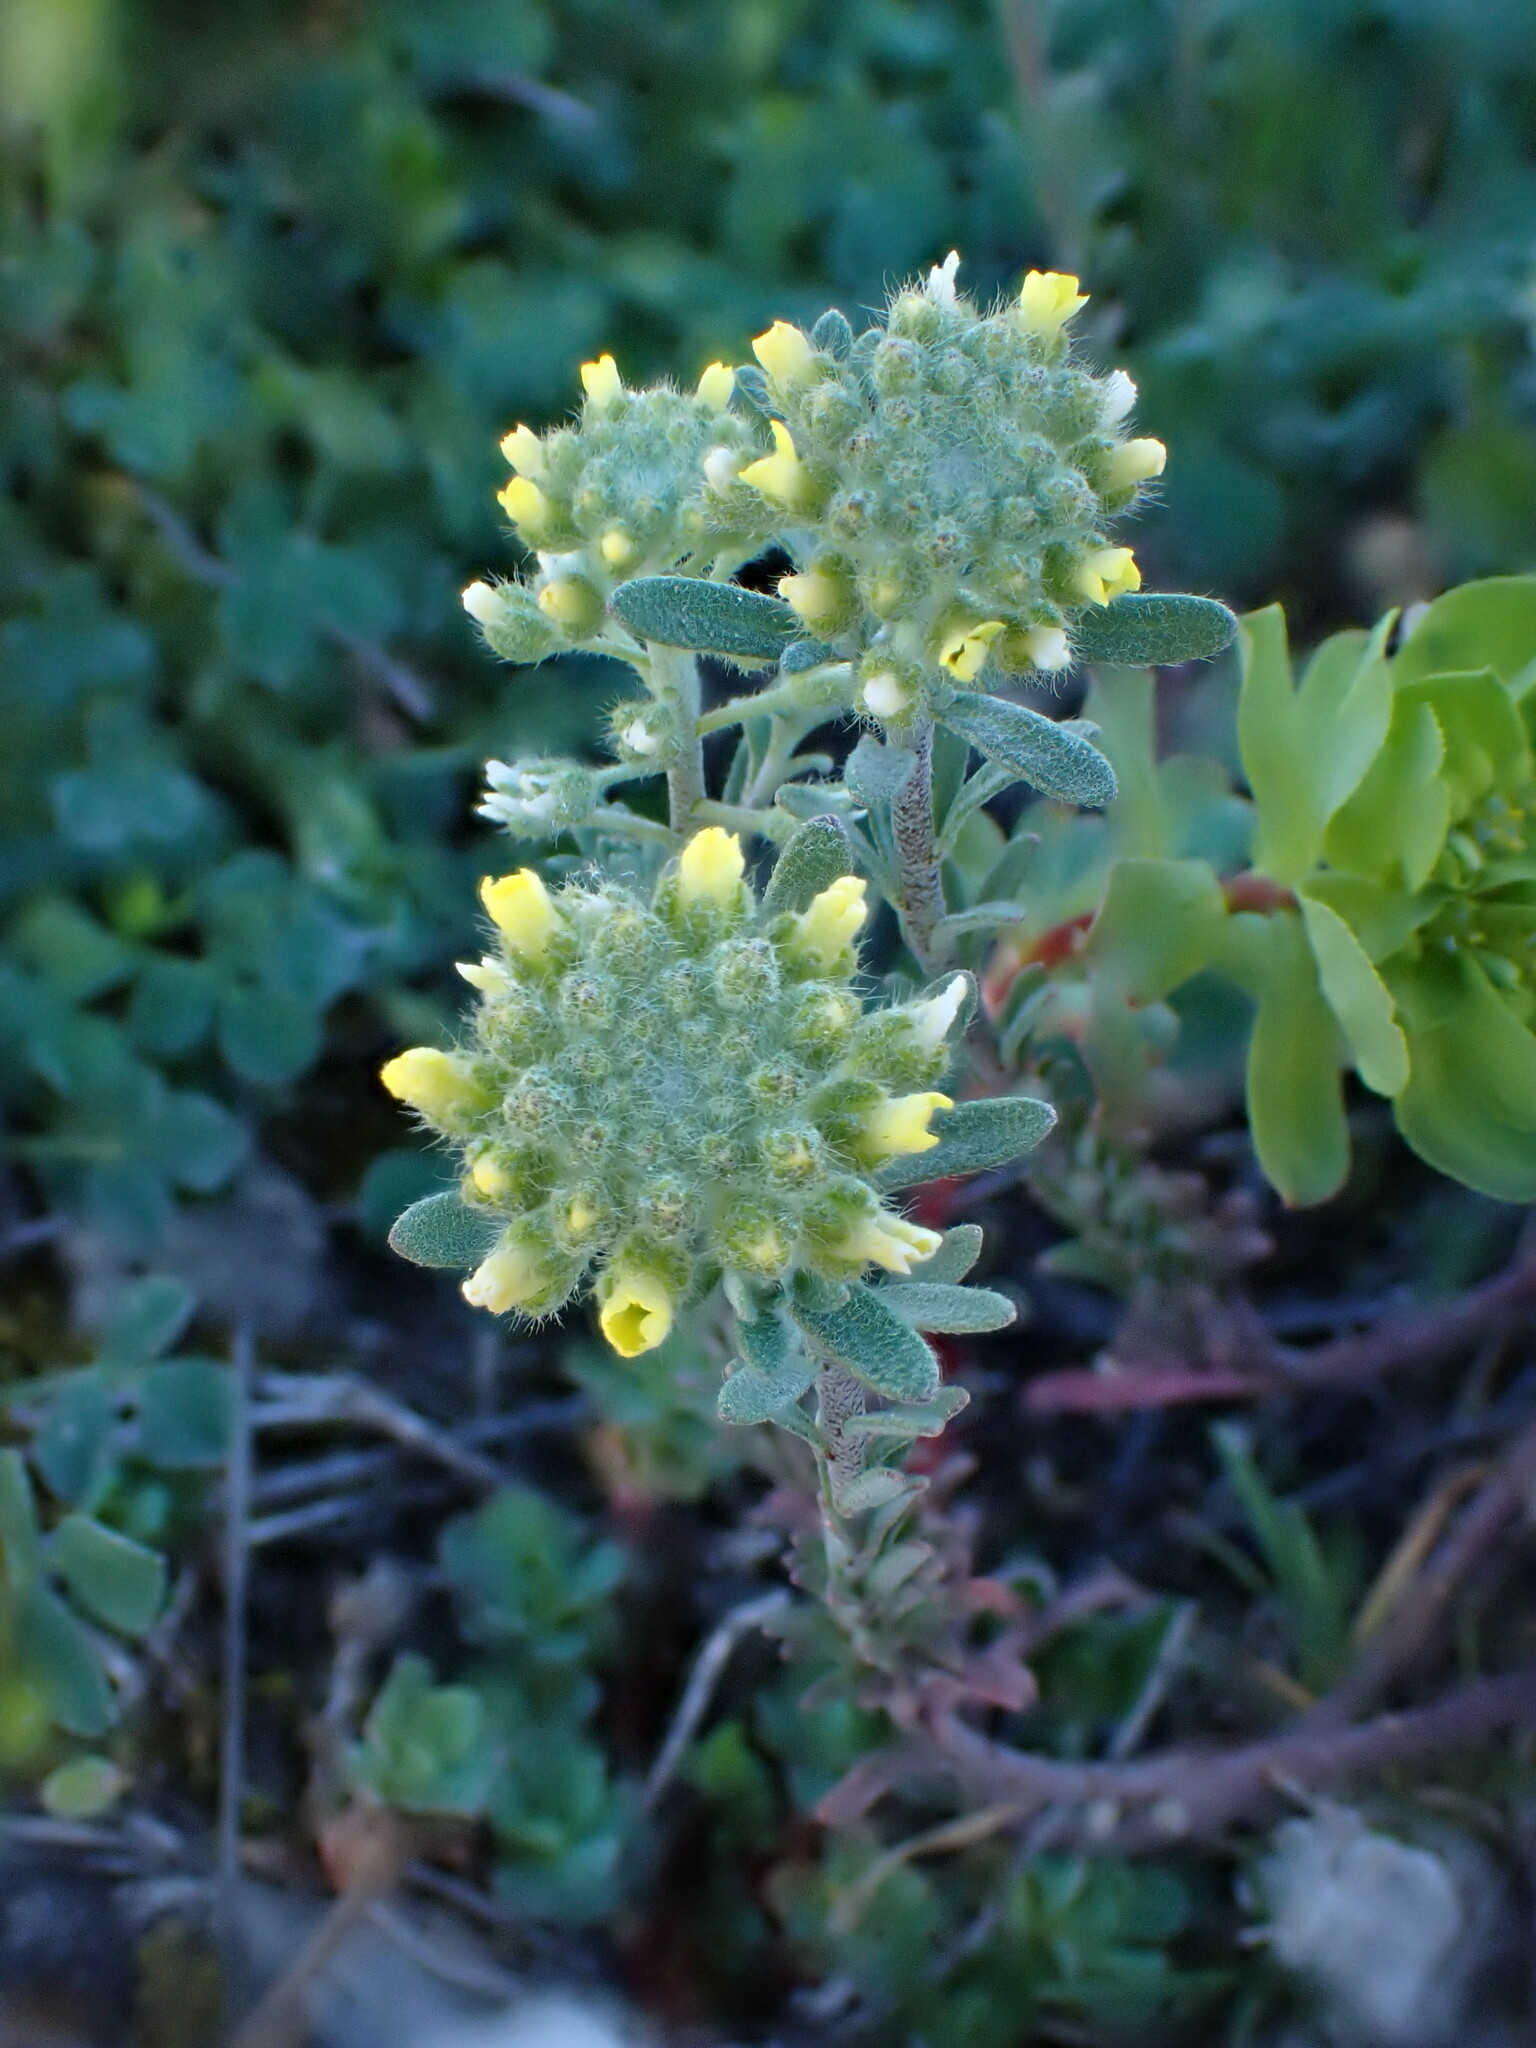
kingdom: Plantae
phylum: Tracheophyta
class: Magnoliopsida
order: Brassicales
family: Brassicaceae
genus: Alyssum
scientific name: Alyssum alyssoides
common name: Small alison
